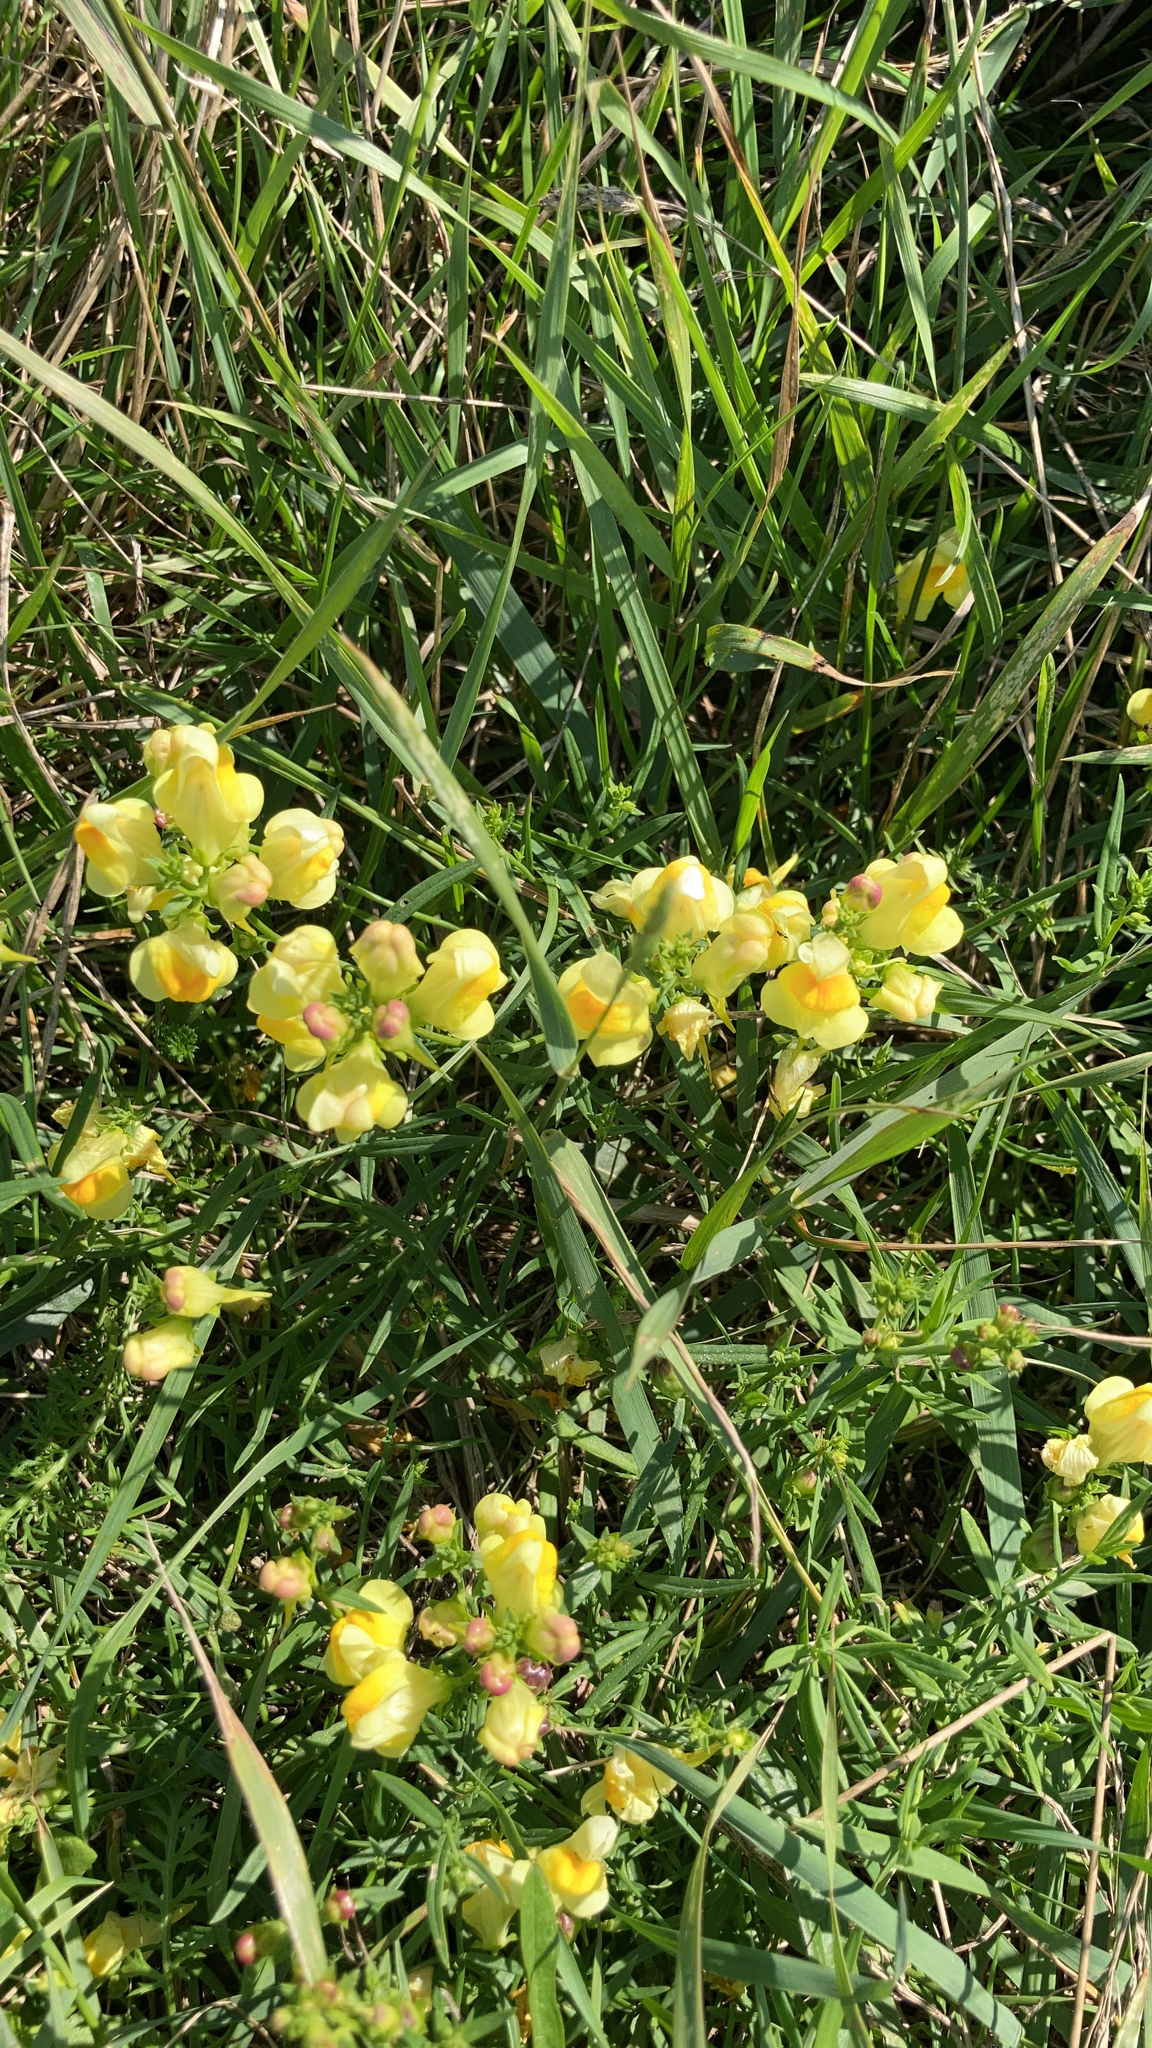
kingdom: Plantae
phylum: Tracheophyta
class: Magnoliopsida
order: Lamiales
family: Plantaginaceae
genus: Linaria
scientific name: Linaria vulgaris
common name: Butter and eggs
